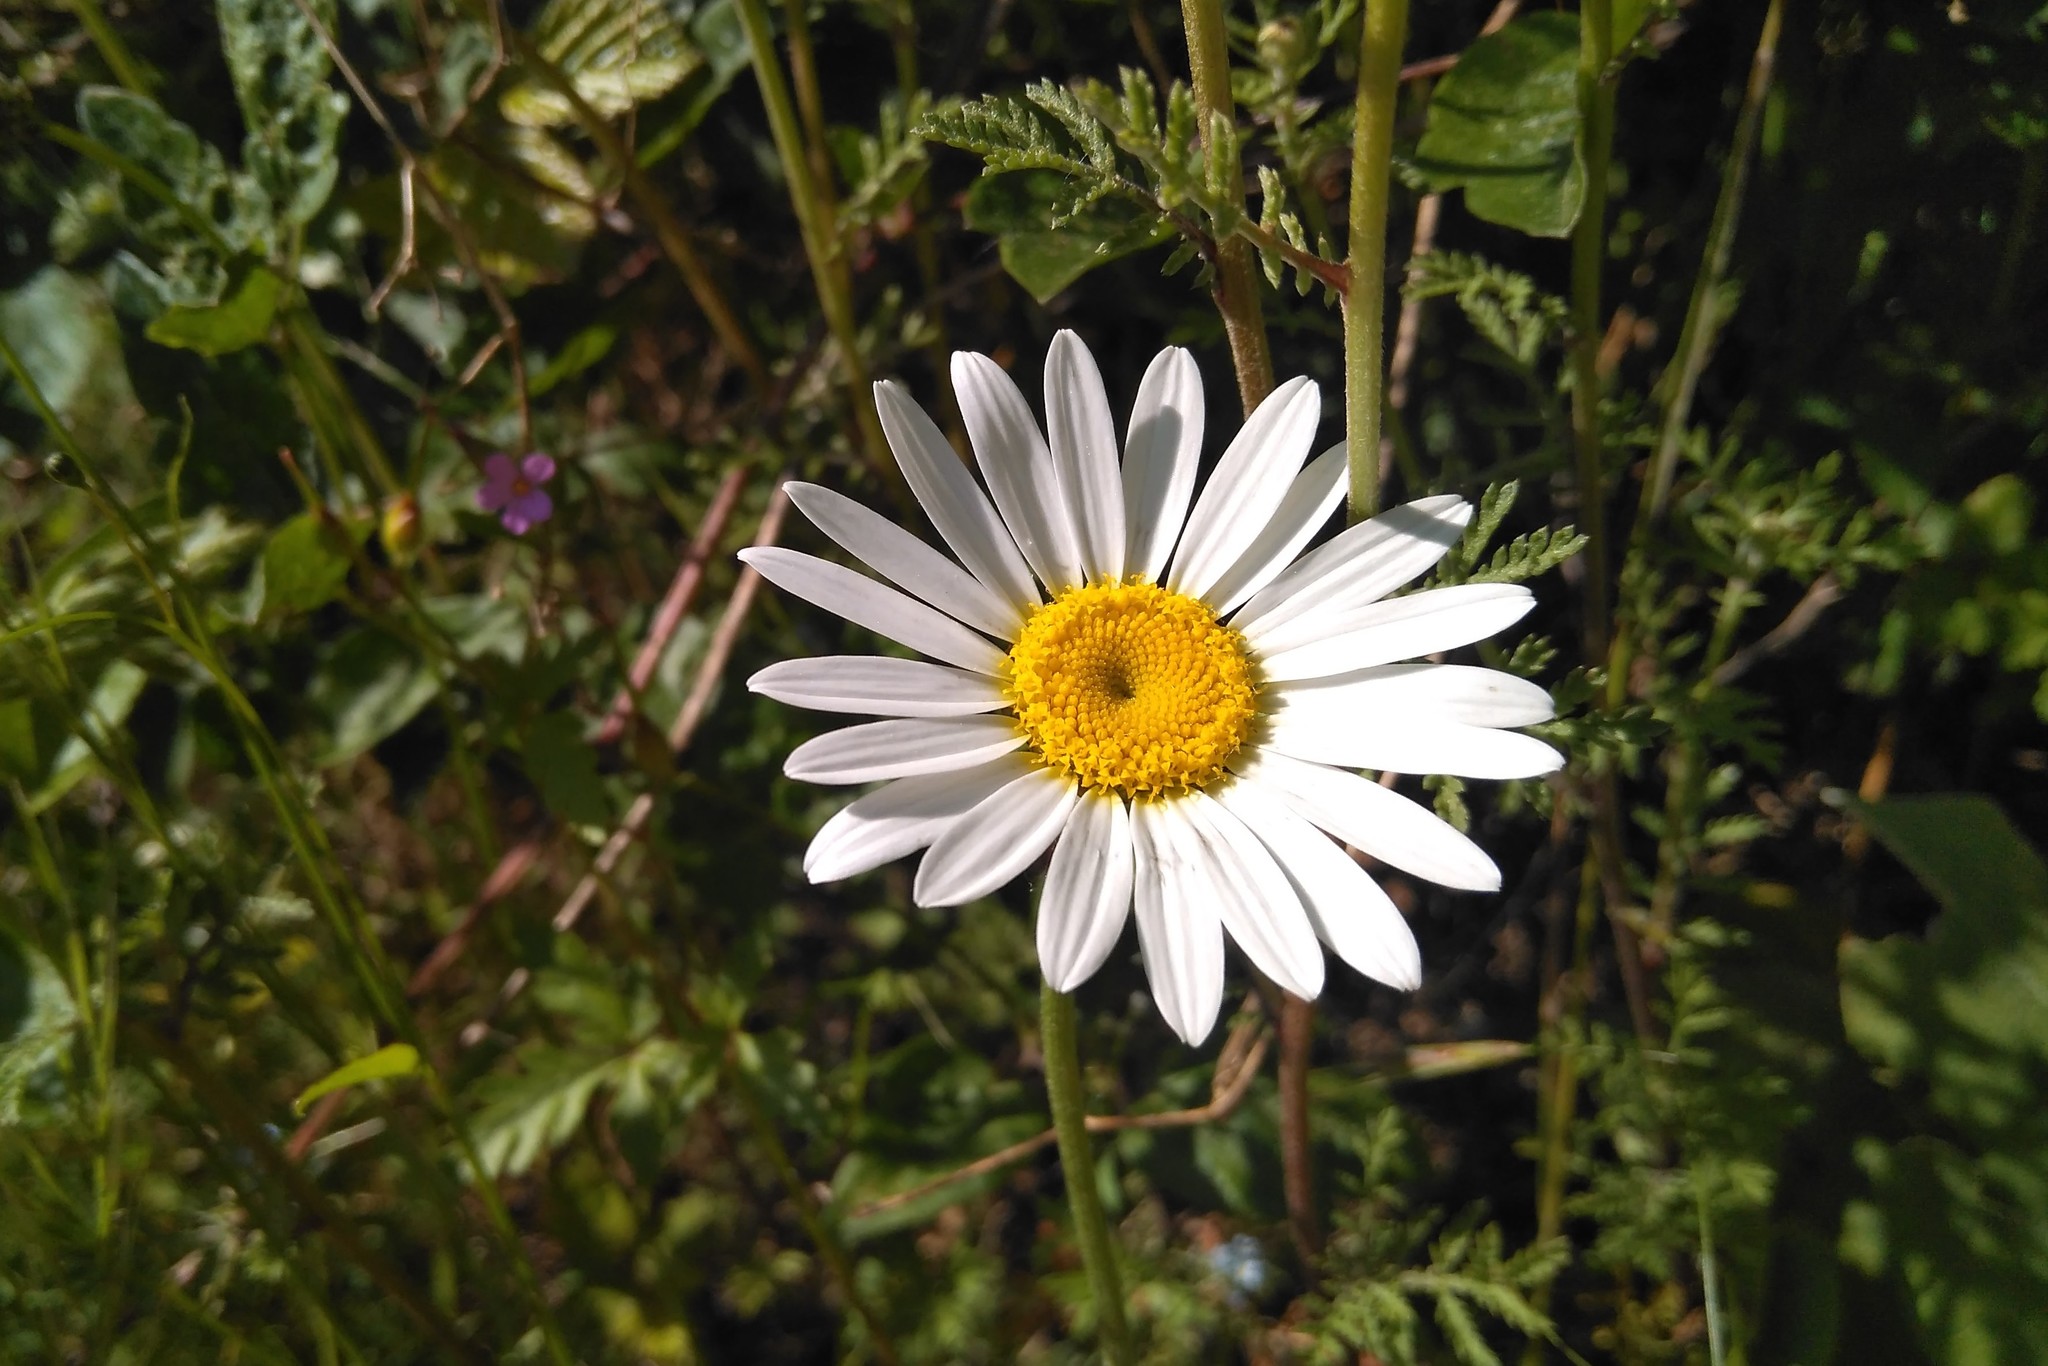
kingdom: Plantae
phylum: Tracheophyta
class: Magnoliopsida
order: Asterales
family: Asteraceae
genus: Cota
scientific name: Cota triumfetti
